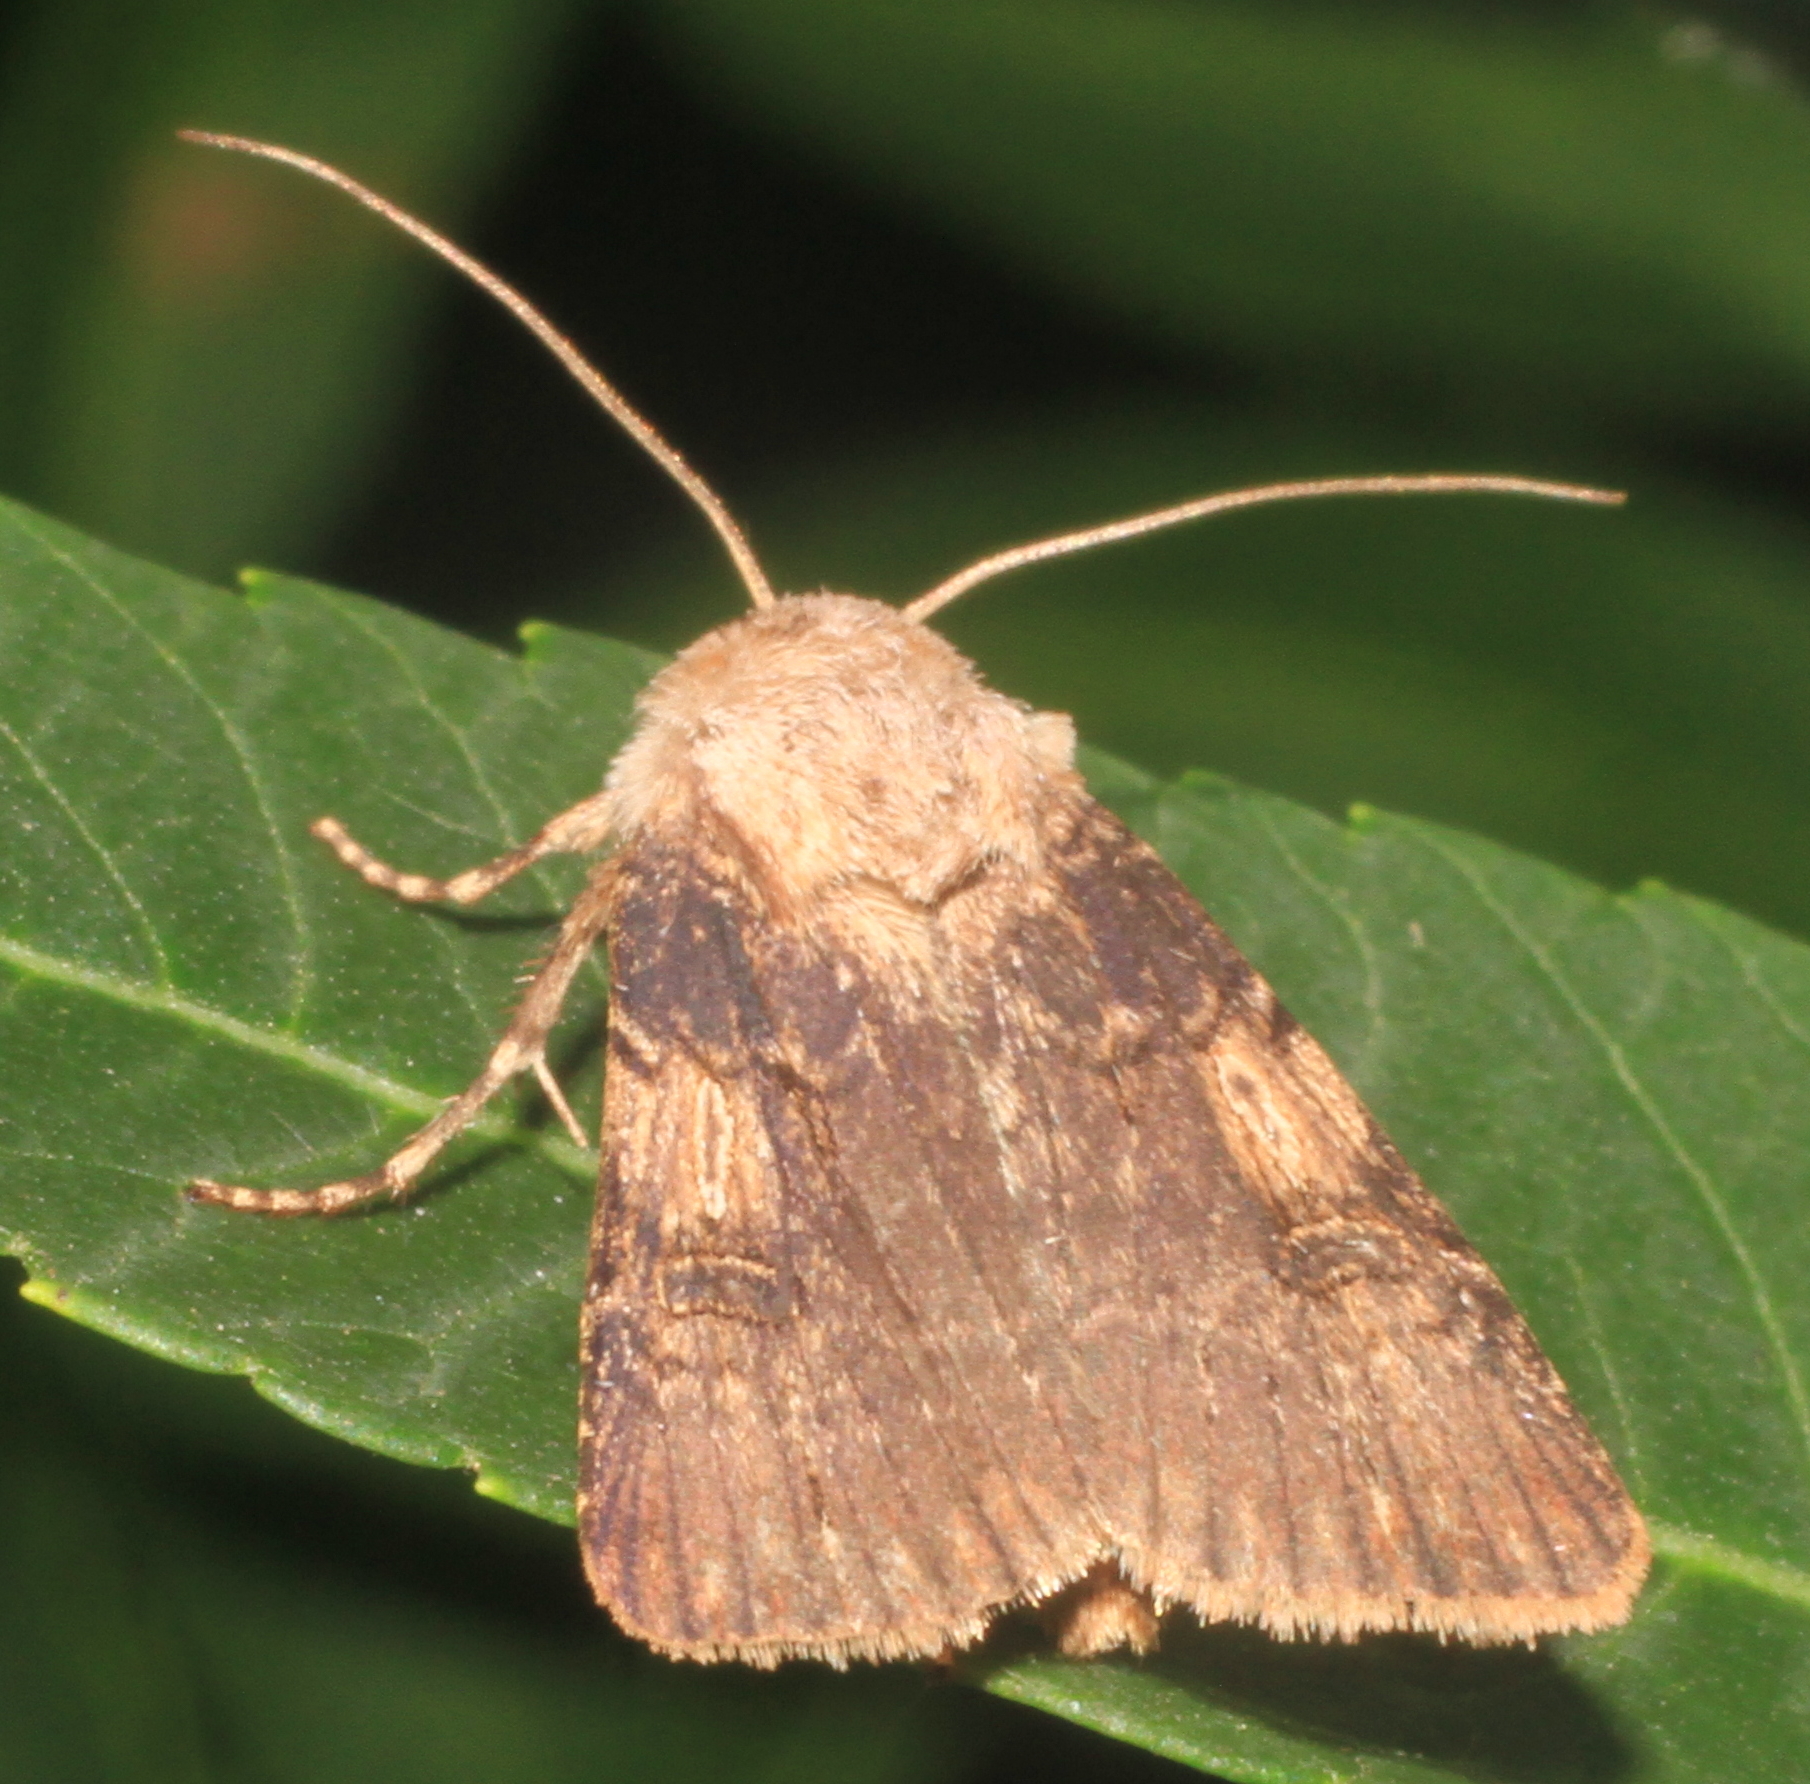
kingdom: Animalia
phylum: Arthropoda
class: Insecta
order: Lepidoptera
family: Noctuidae
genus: Agrotis
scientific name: Agrotis puta
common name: Shuttle-shaped dart
